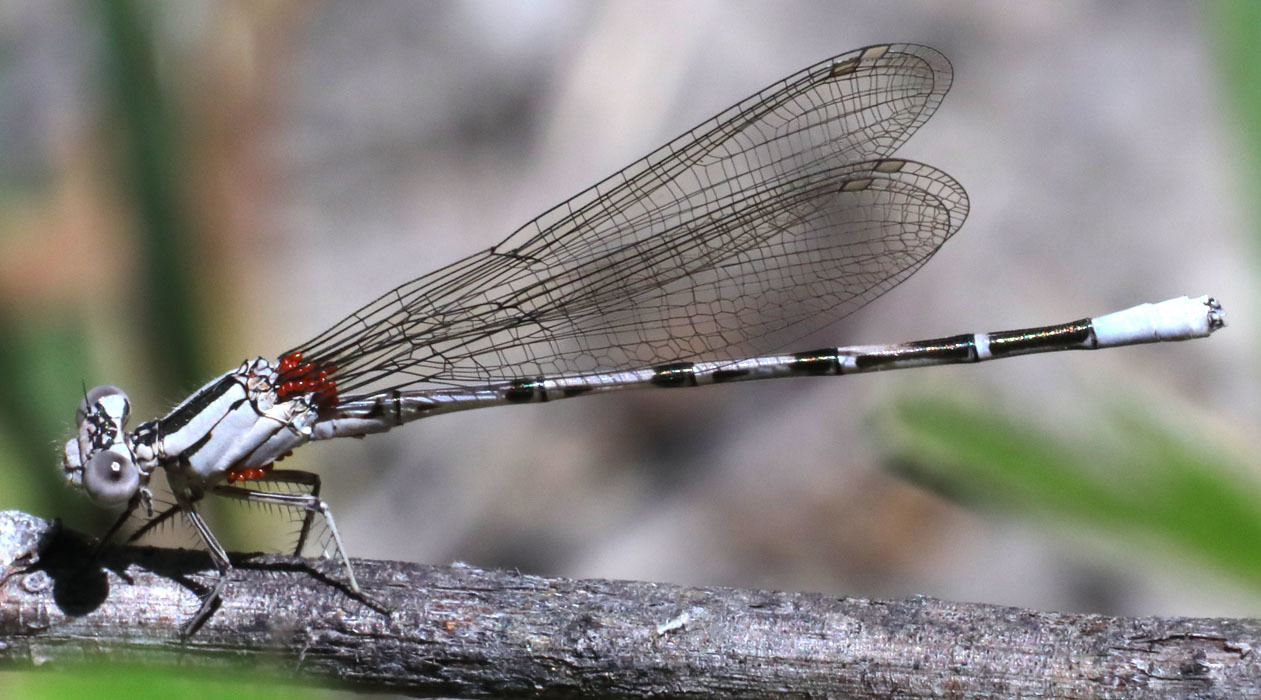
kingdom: Animalia
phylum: Arthropoda
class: Insecta
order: Odonata
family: Coenagrionidae
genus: Argia
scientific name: Argia vivida
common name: Vivid dancer
